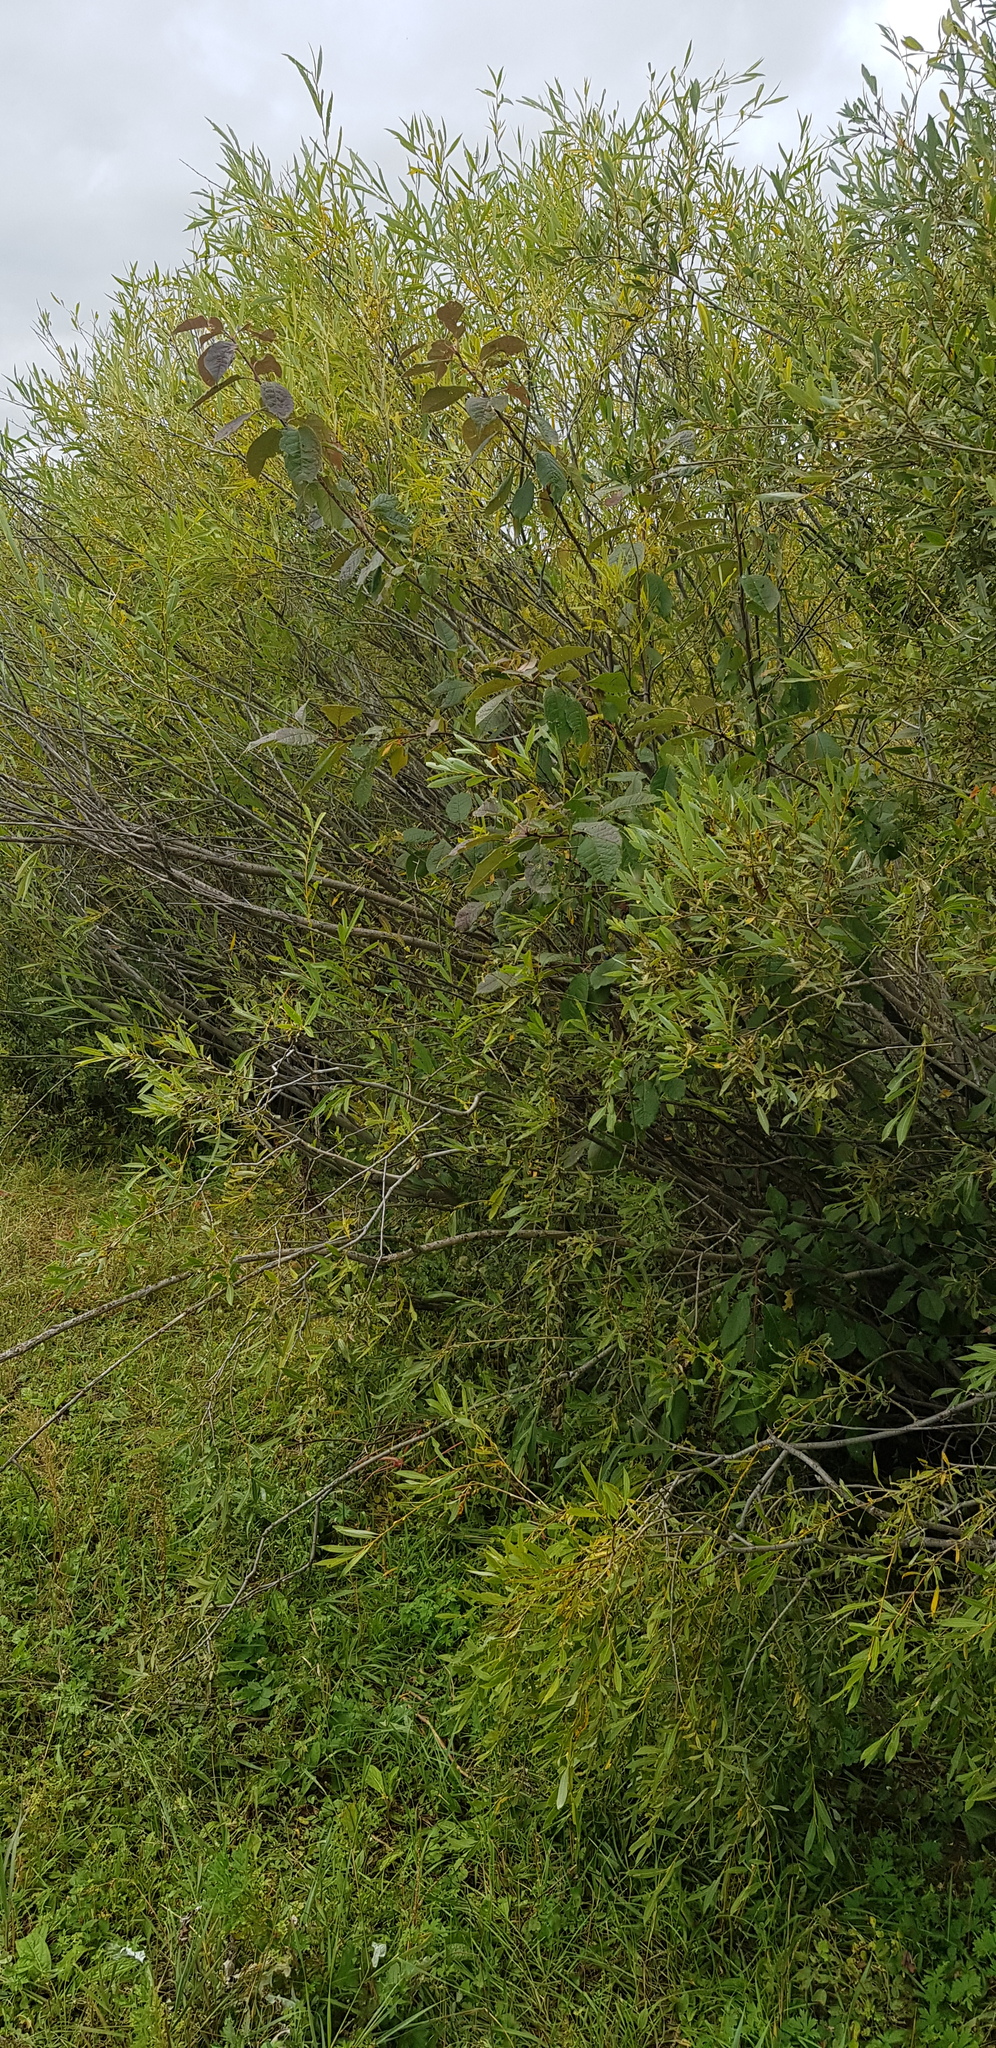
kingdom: Plantae
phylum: Tracheophyta
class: Magnoliopsida
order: Malpighiales
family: Salicaceae
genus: Salix
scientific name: Salix viminalis
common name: Osier
